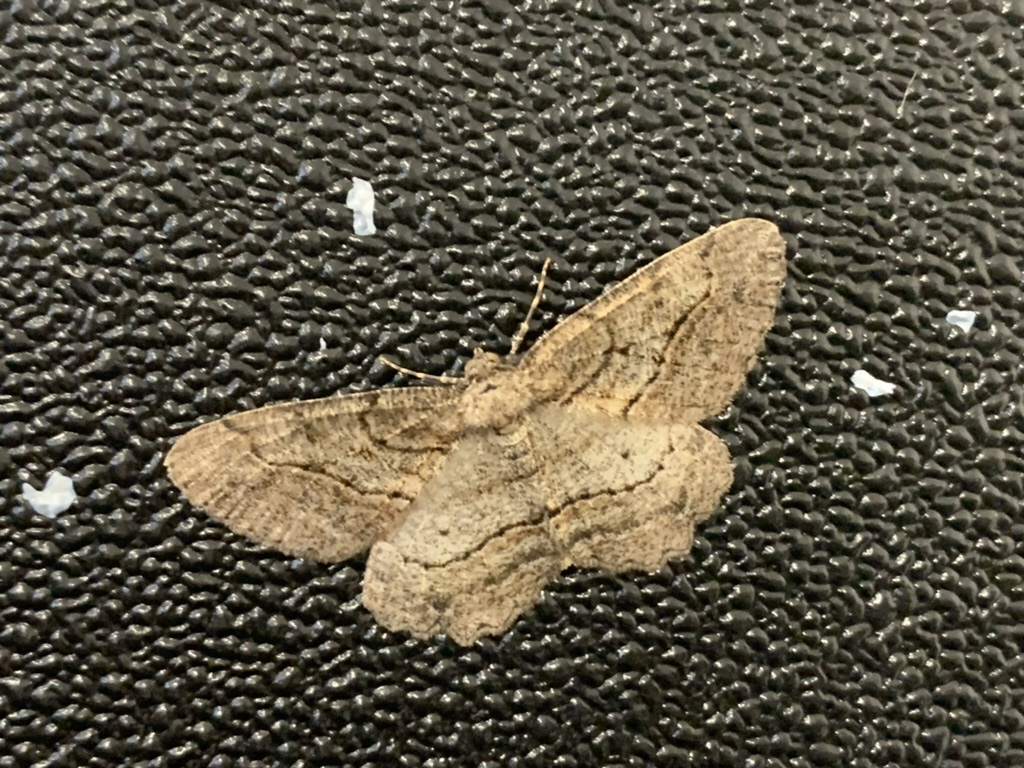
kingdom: Animalia
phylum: Arthropoda
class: Insecta
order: Lepidoptera
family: Geometridae
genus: Neoalcis
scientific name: Neoalcis californiaria
